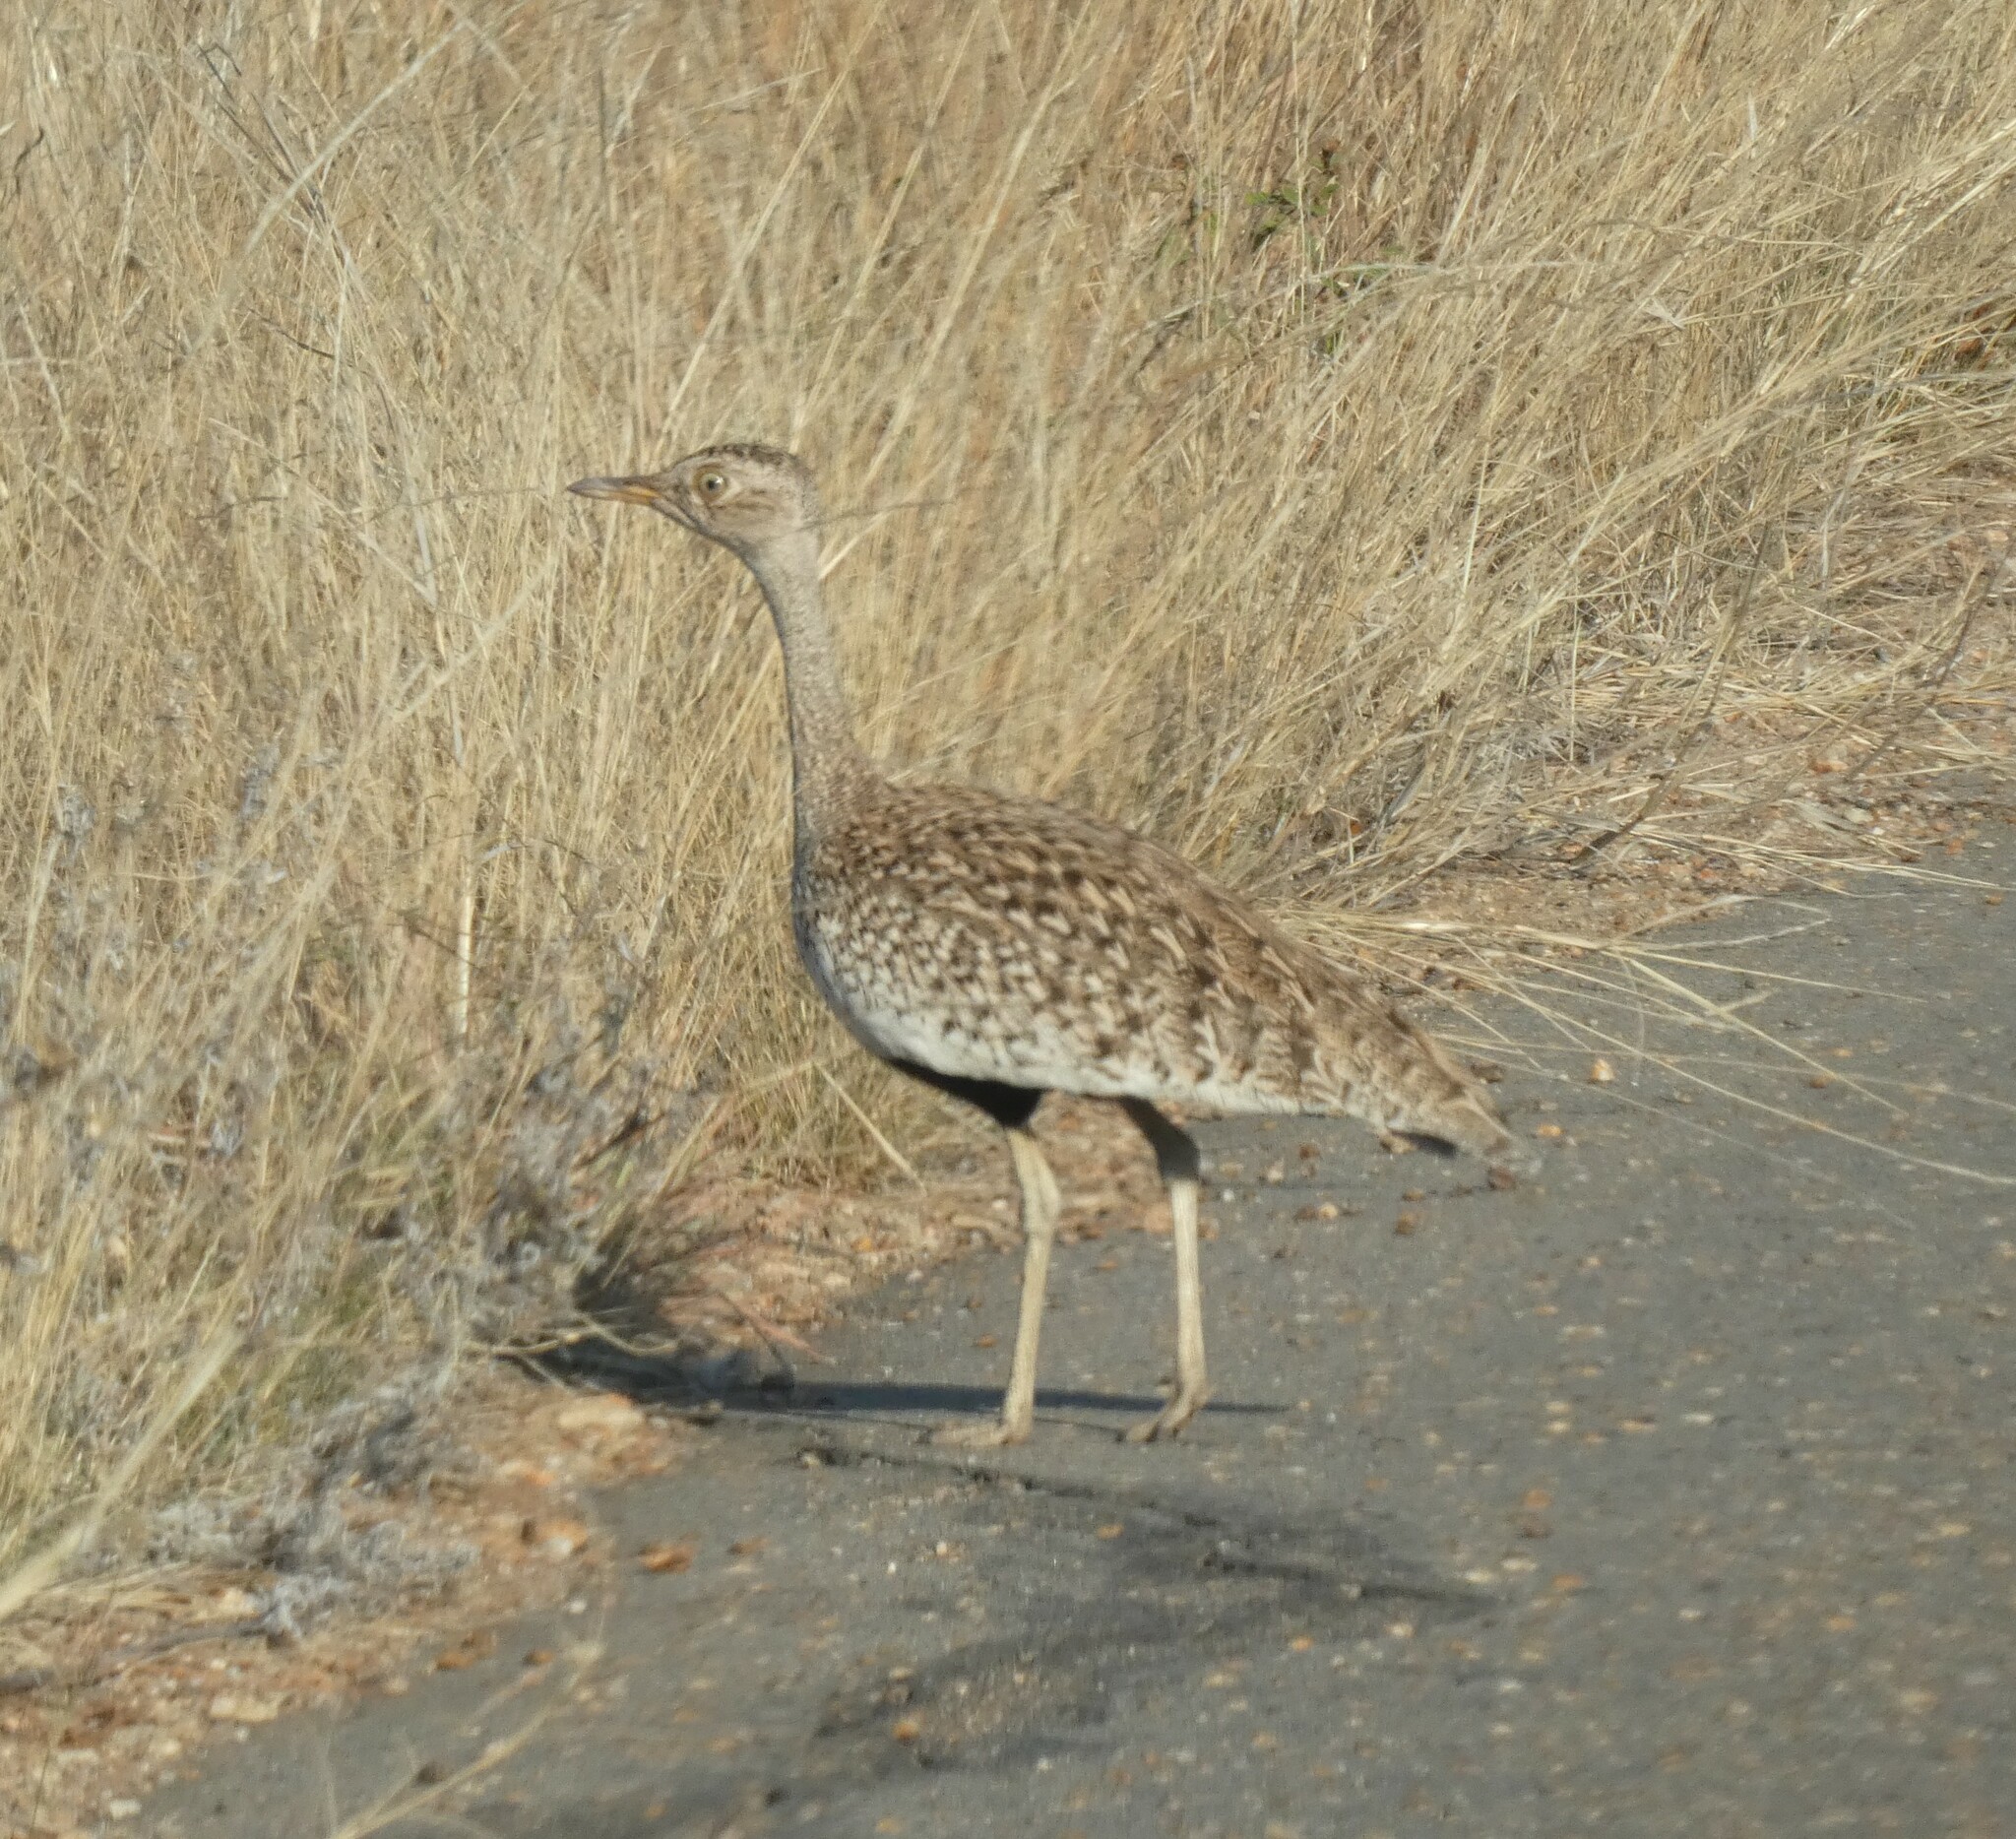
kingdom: Animalia
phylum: Chordata
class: Aves
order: Otidiformes
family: Otididae
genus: Lophotis
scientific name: Lophotis ruficrista
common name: Red-crested korhaan
